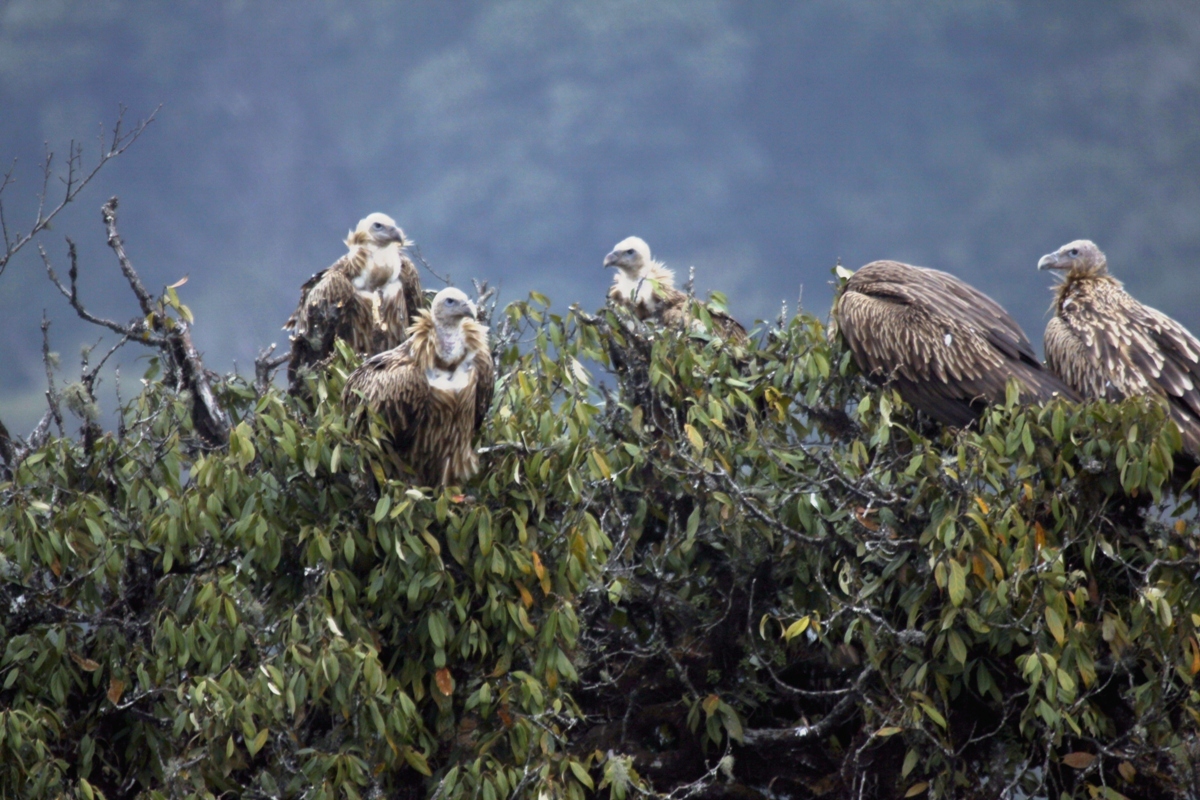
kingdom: Animalia
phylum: Chordata
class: Aves
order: Accipitriformes
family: Accipitridae
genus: Gyps
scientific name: Gyps himalayensis
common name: Himalayan griffon
